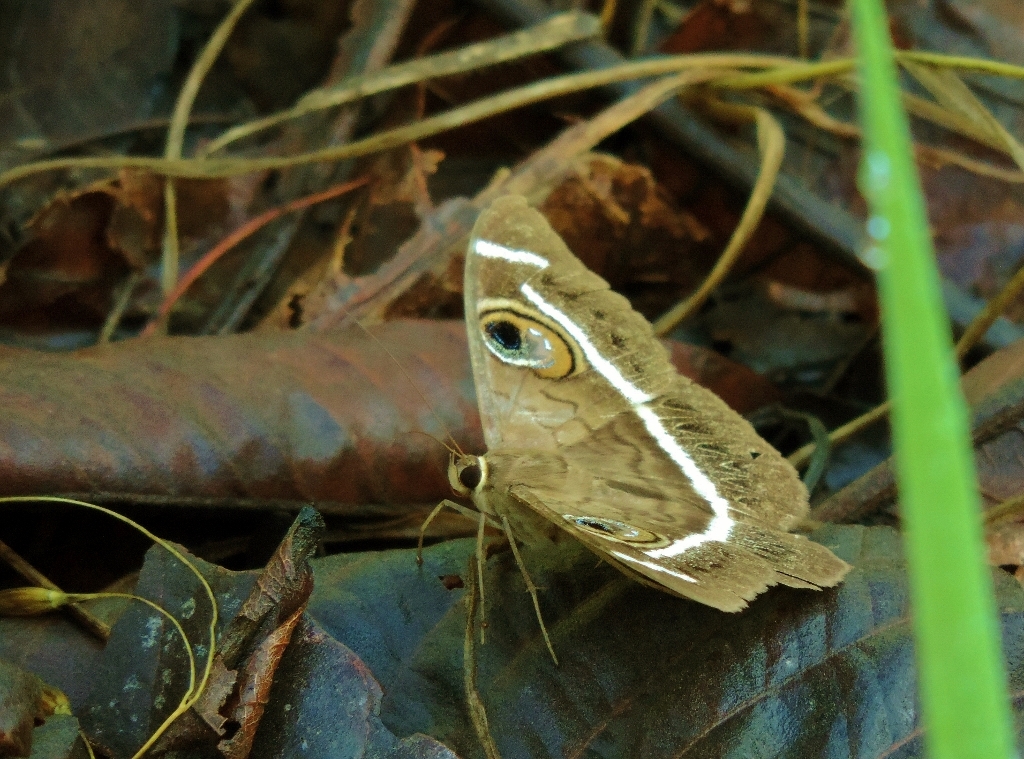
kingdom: Animalia
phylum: Arthropoda
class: Insecta
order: Lepidoptera
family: Erebidae
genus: Cyligramma
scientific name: Cyligramma latona
